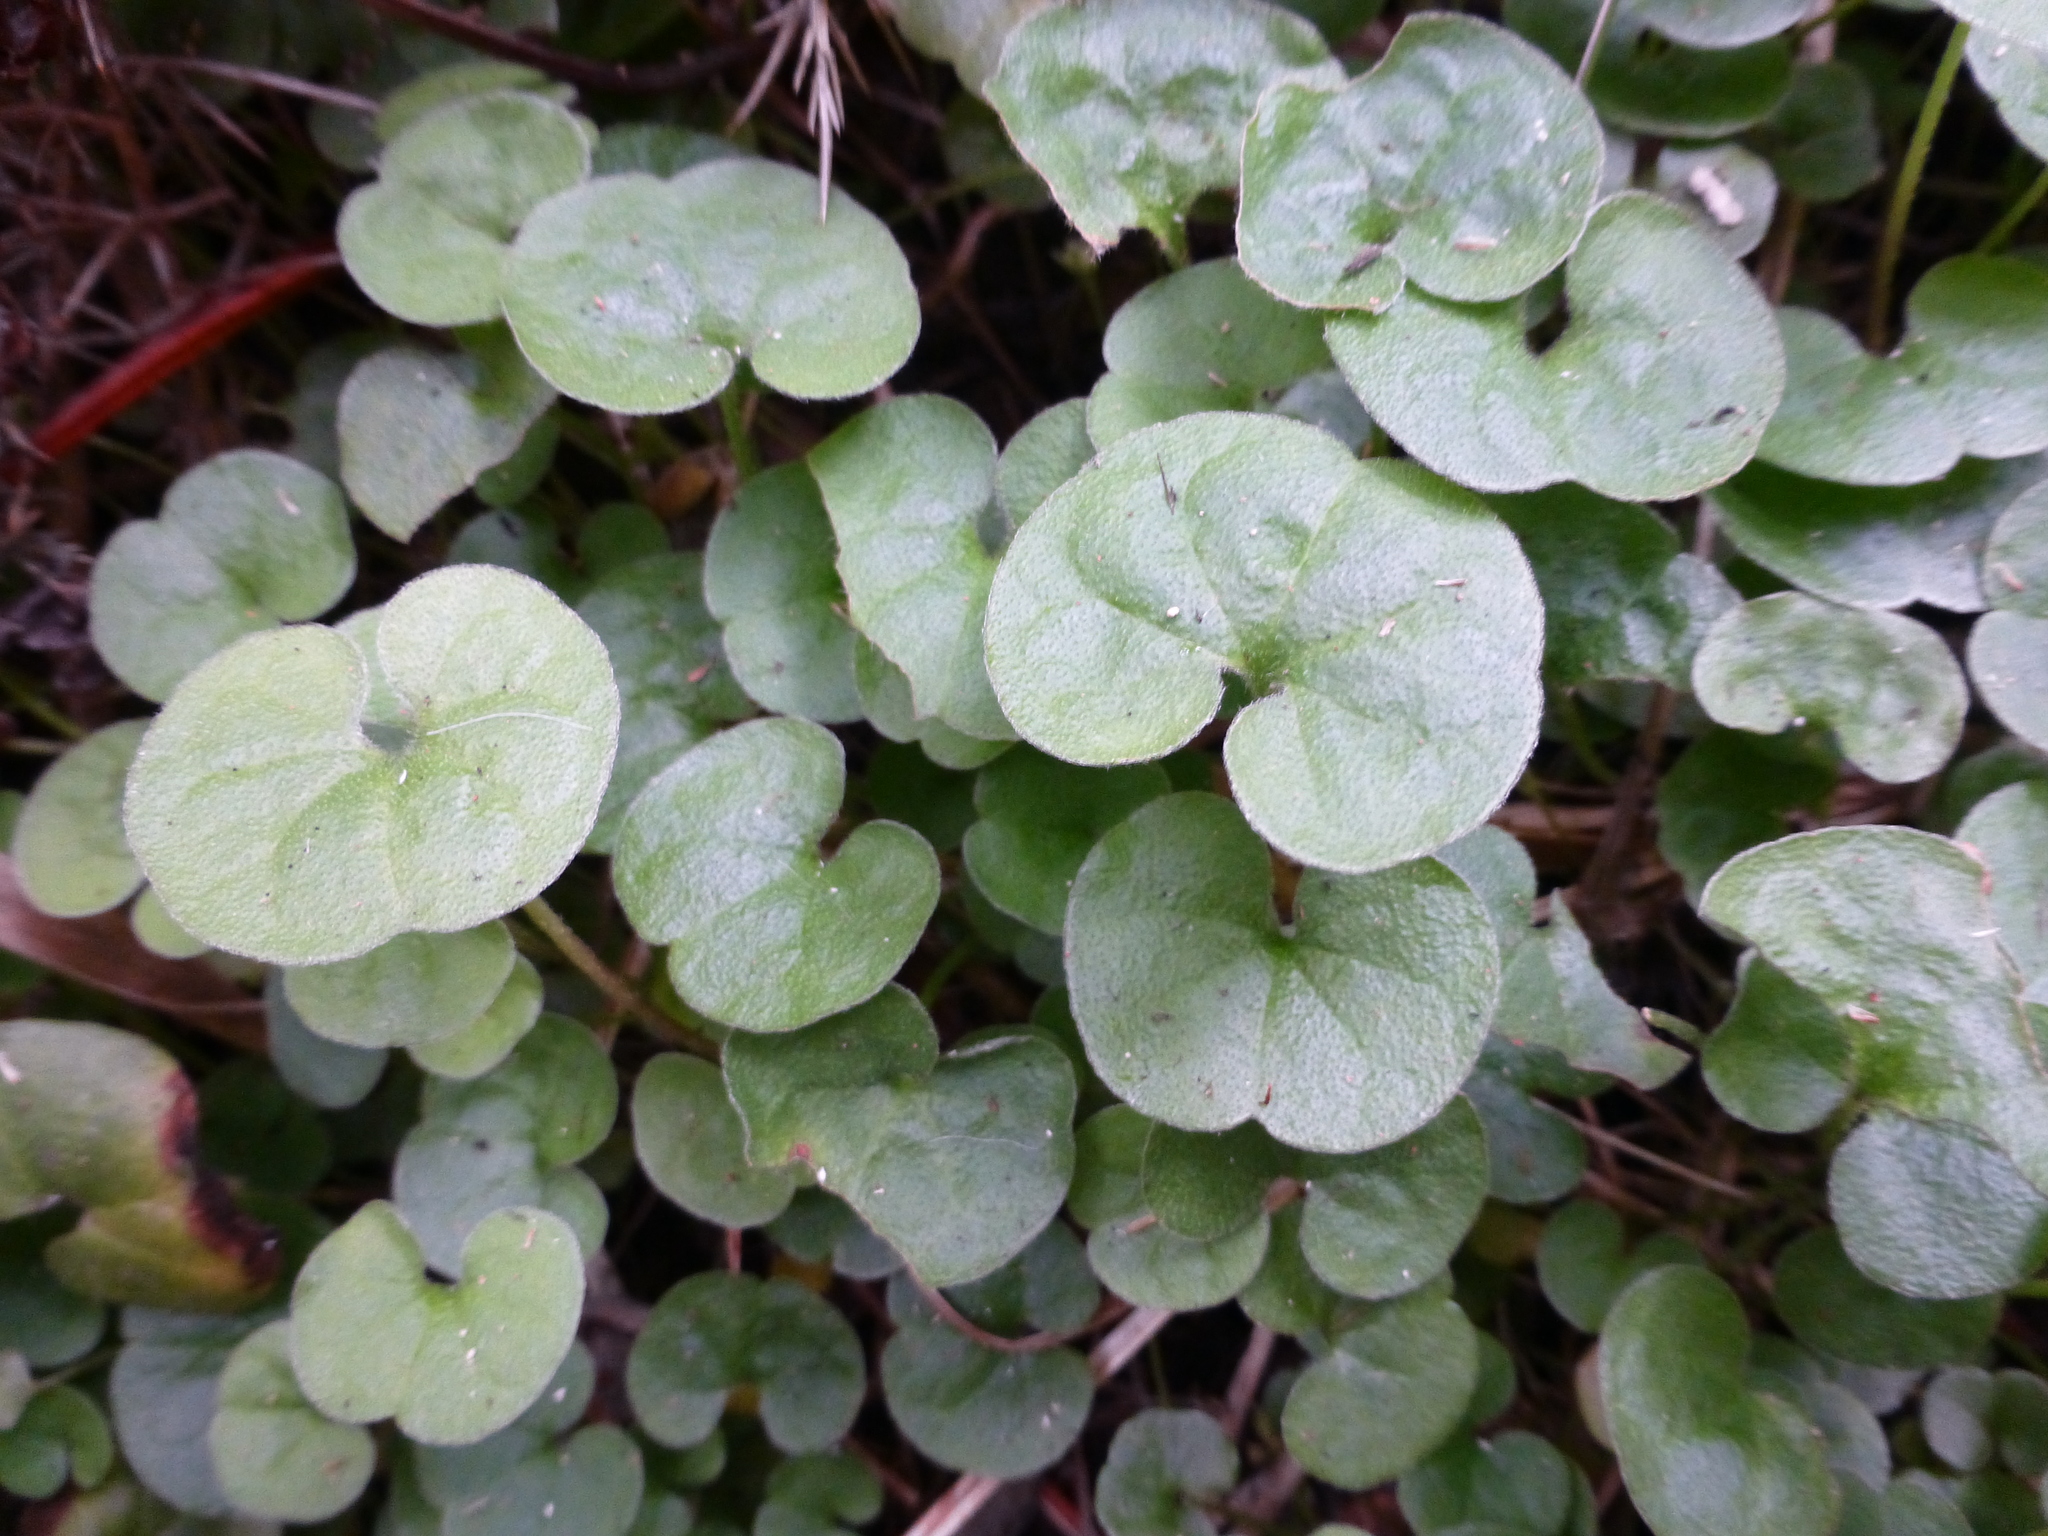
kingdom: Plantae
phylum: Tracheophyta
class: Magnoliopsida
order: Solanales
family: Convolvulaceae
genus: Dichondra
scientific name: Dichondra repens
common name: Kidneyweed
